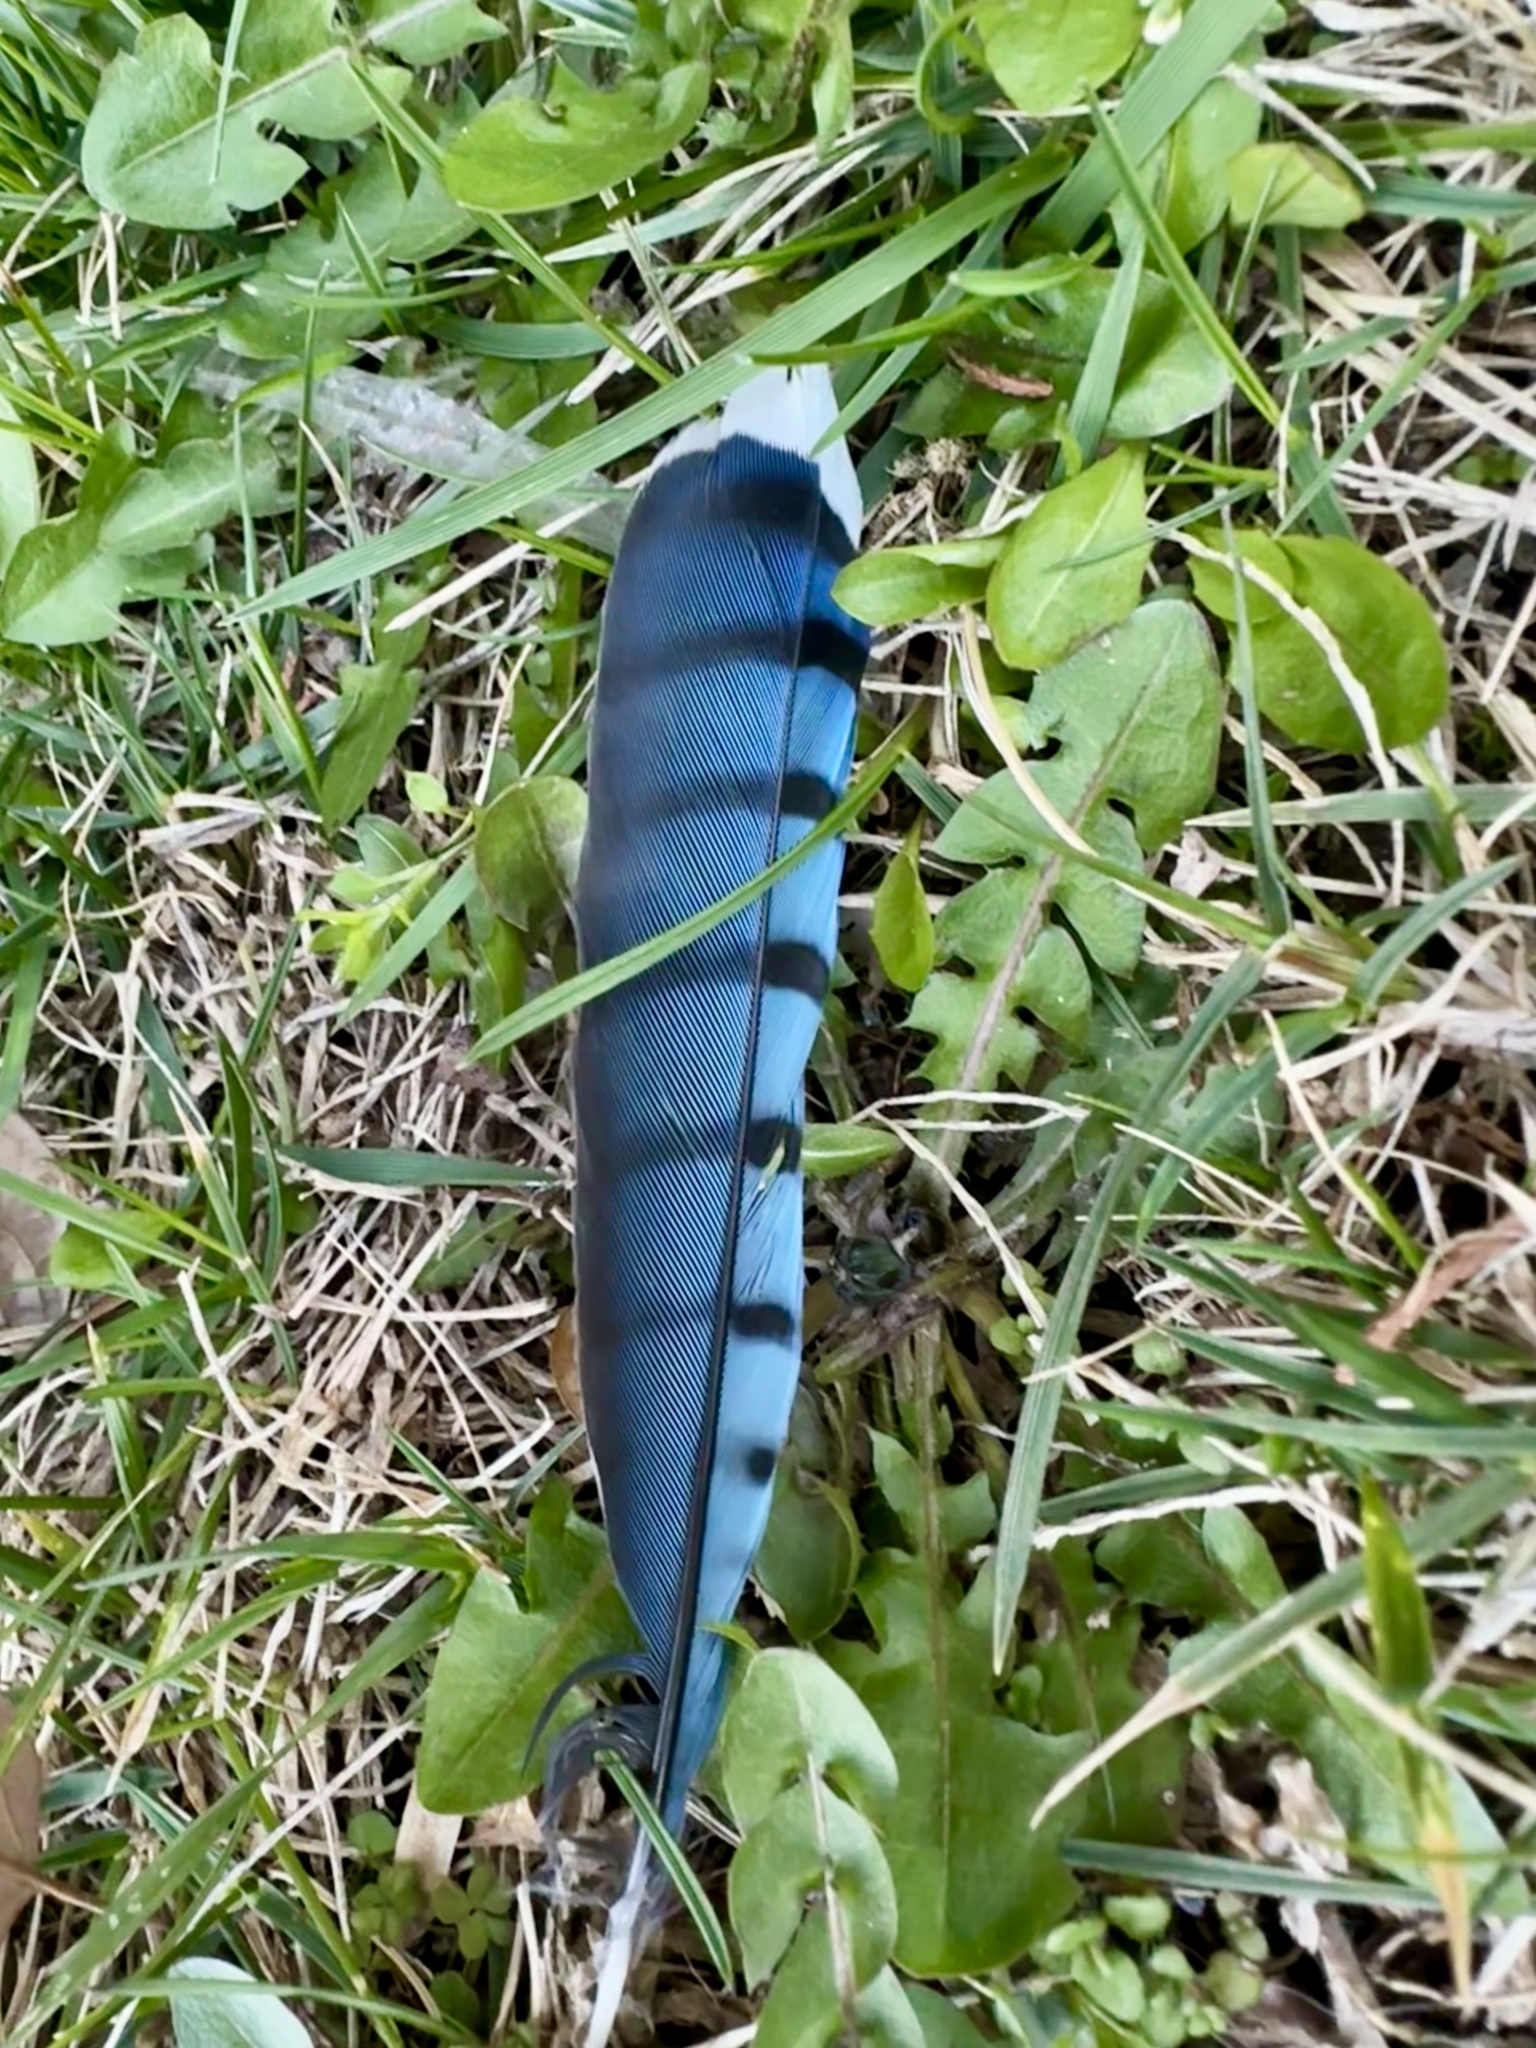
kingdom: Animalia
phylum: Chordata
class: Aves
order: Passeriformes
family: Corvidae
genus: Cyanocitta
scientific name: Cyanocitta cristata
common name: Blue jay
